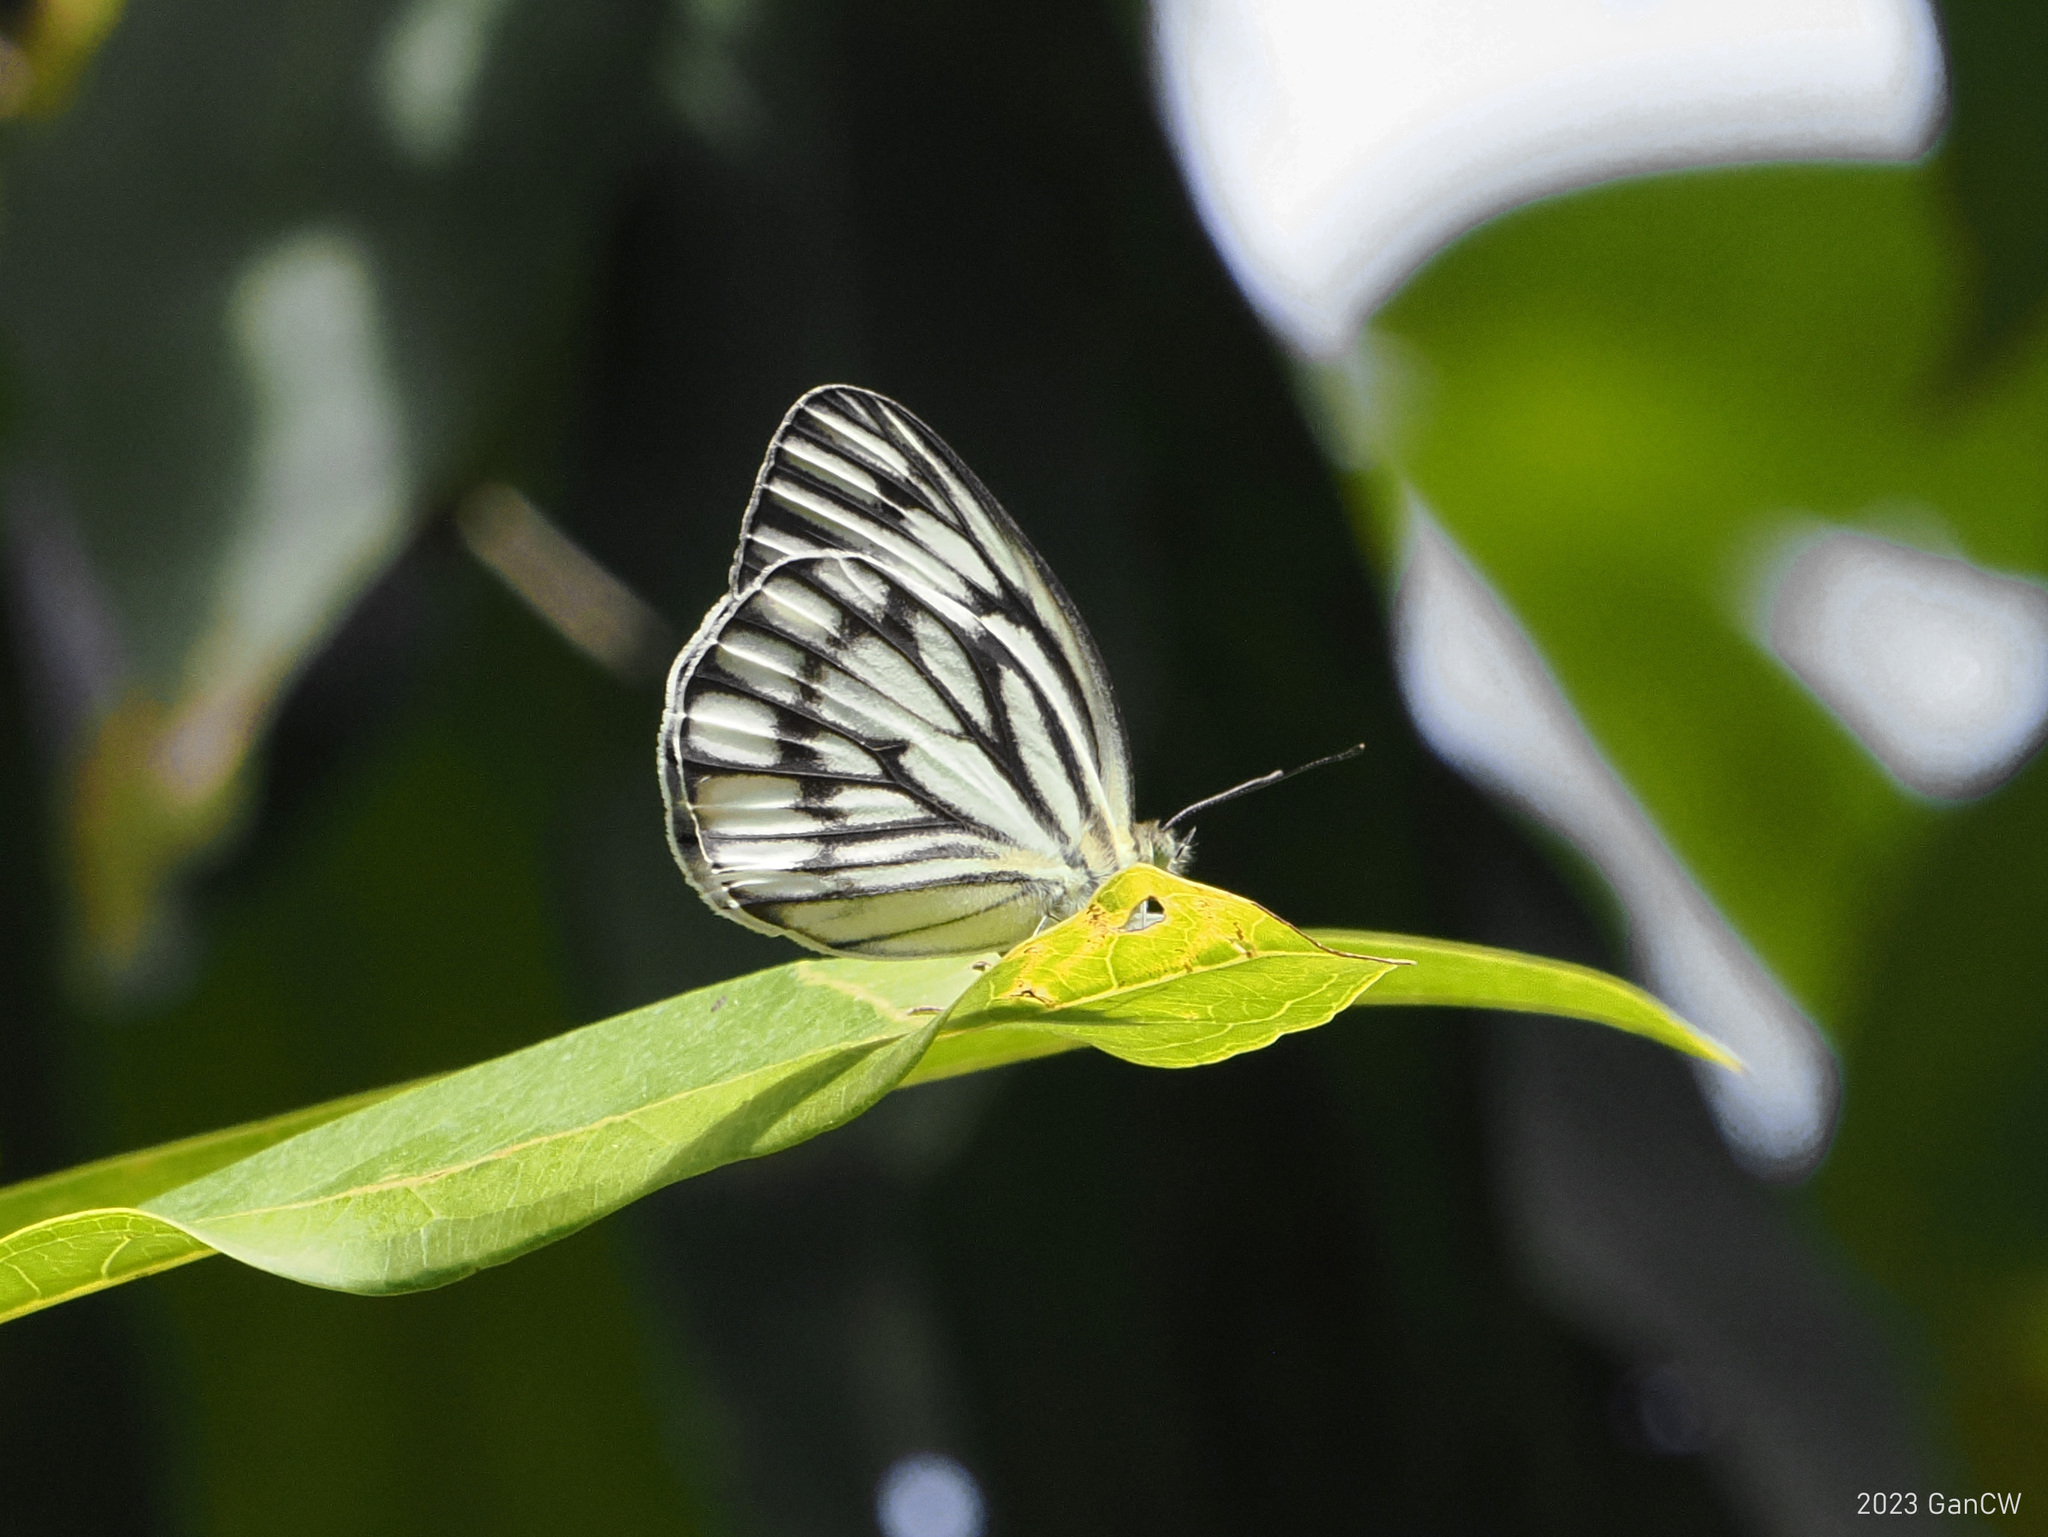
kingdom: Animalia
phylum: Arthropoda
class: Insecta
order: Lepidoptera
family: Pieridae
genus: Cepora
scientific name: Cepora fora
